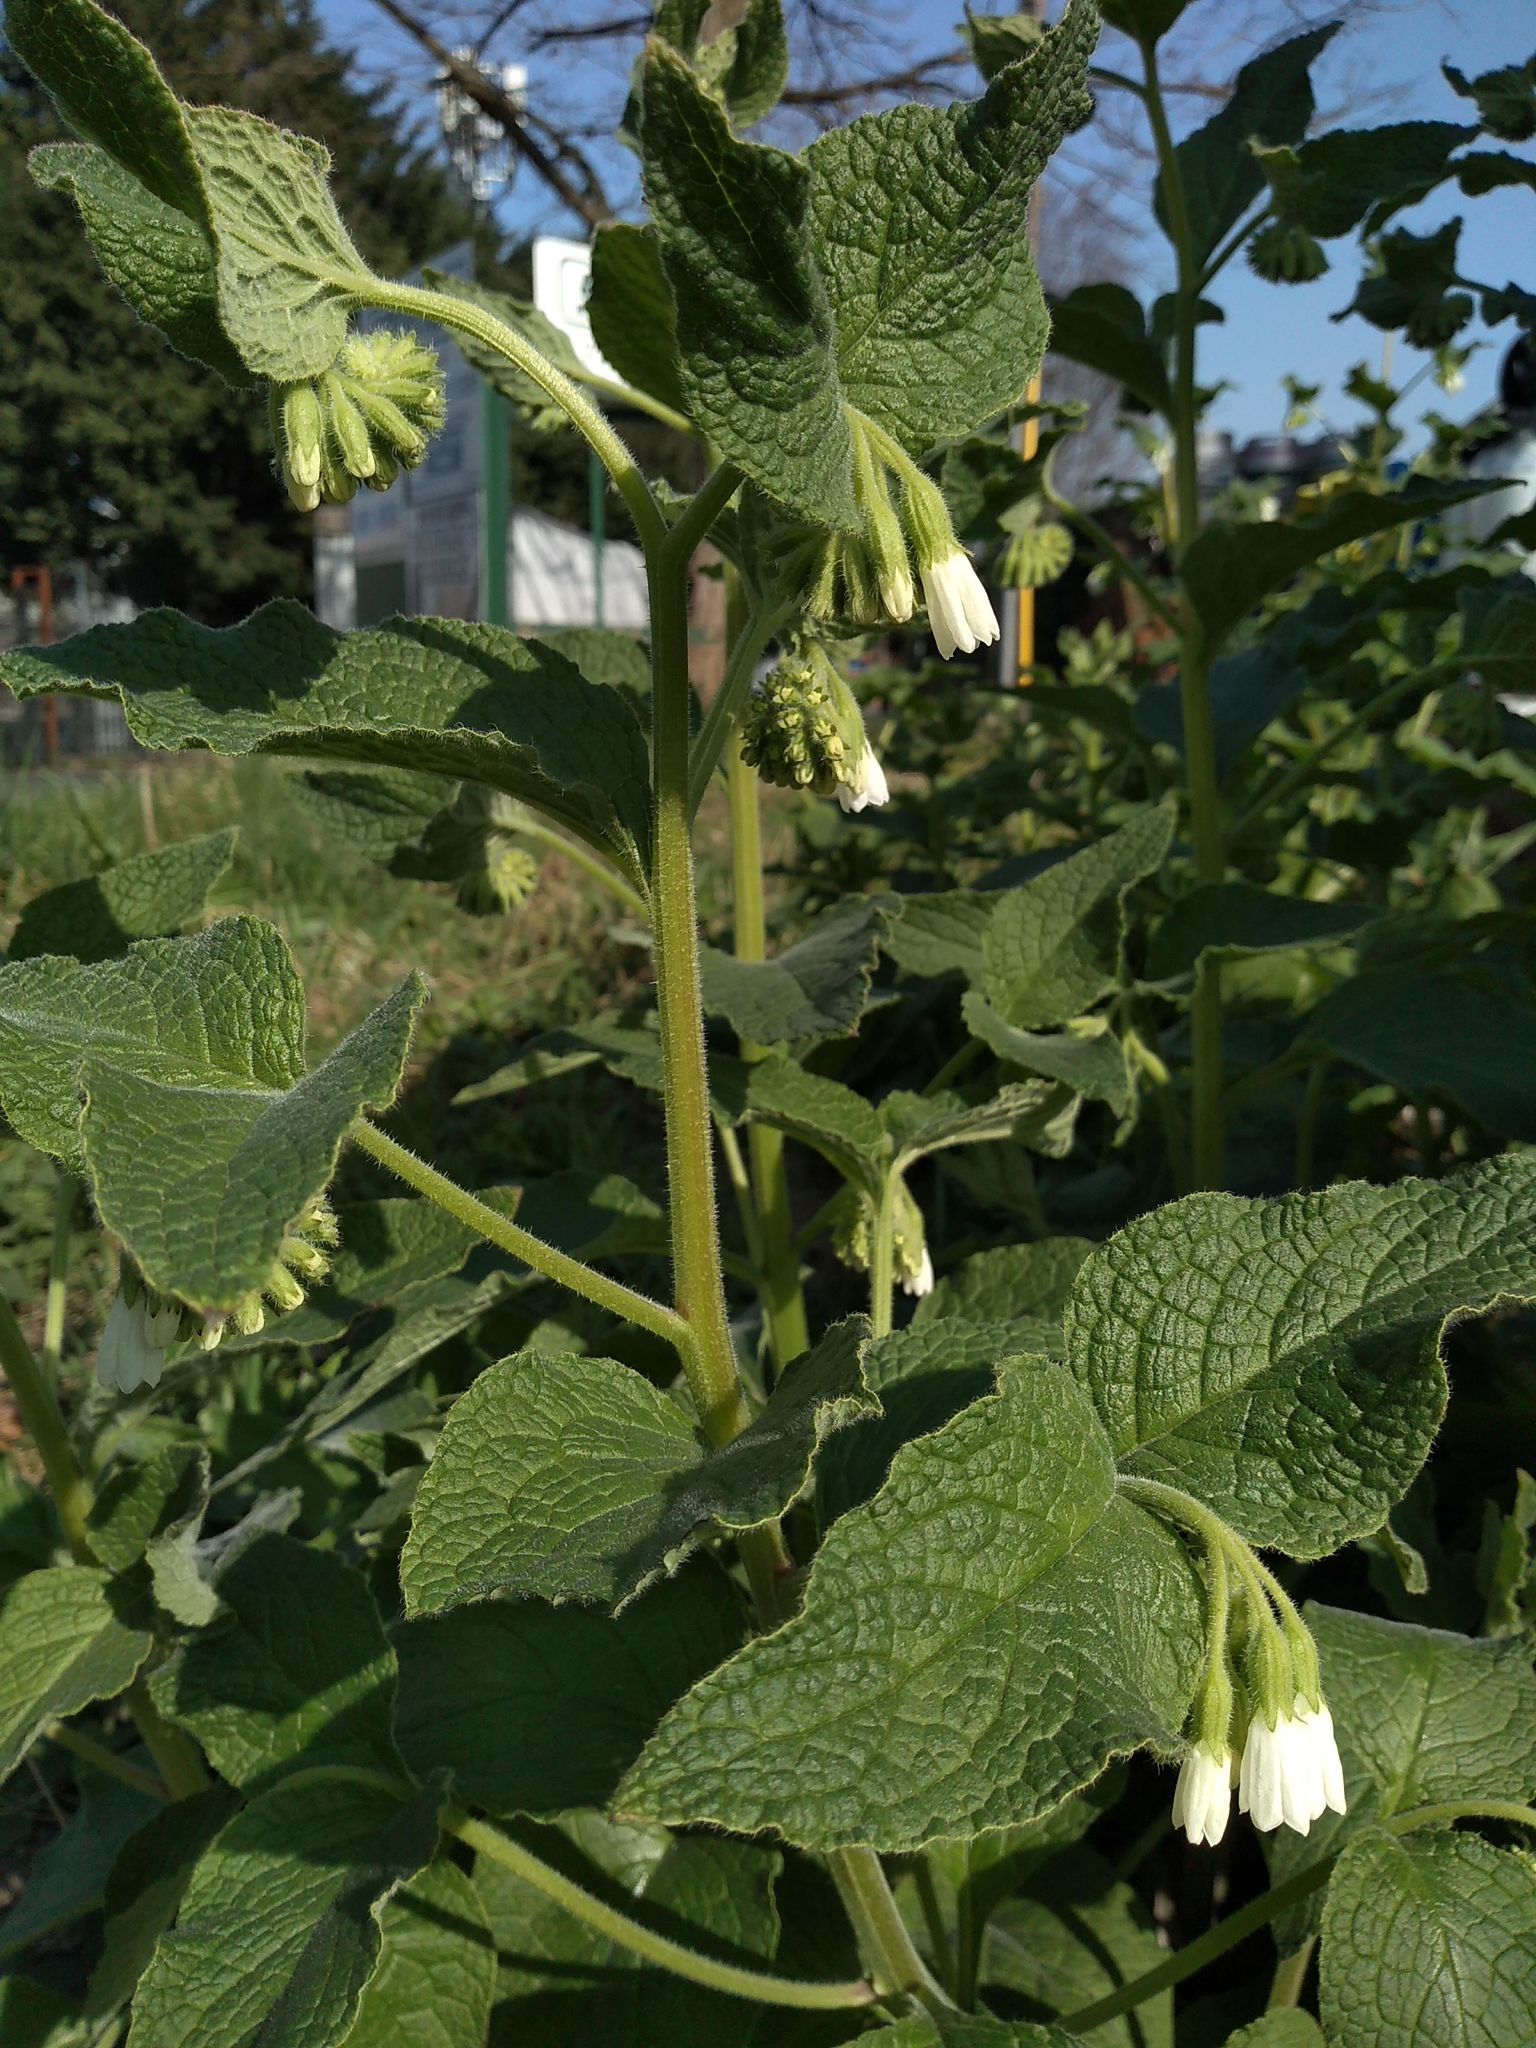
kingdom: Plantae
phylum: Tracheophyta
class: Magnoliopsida
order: Boraginales
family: Boraginaceae
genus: Symphytum
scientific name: Symphytum orientale
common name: White comfrey
